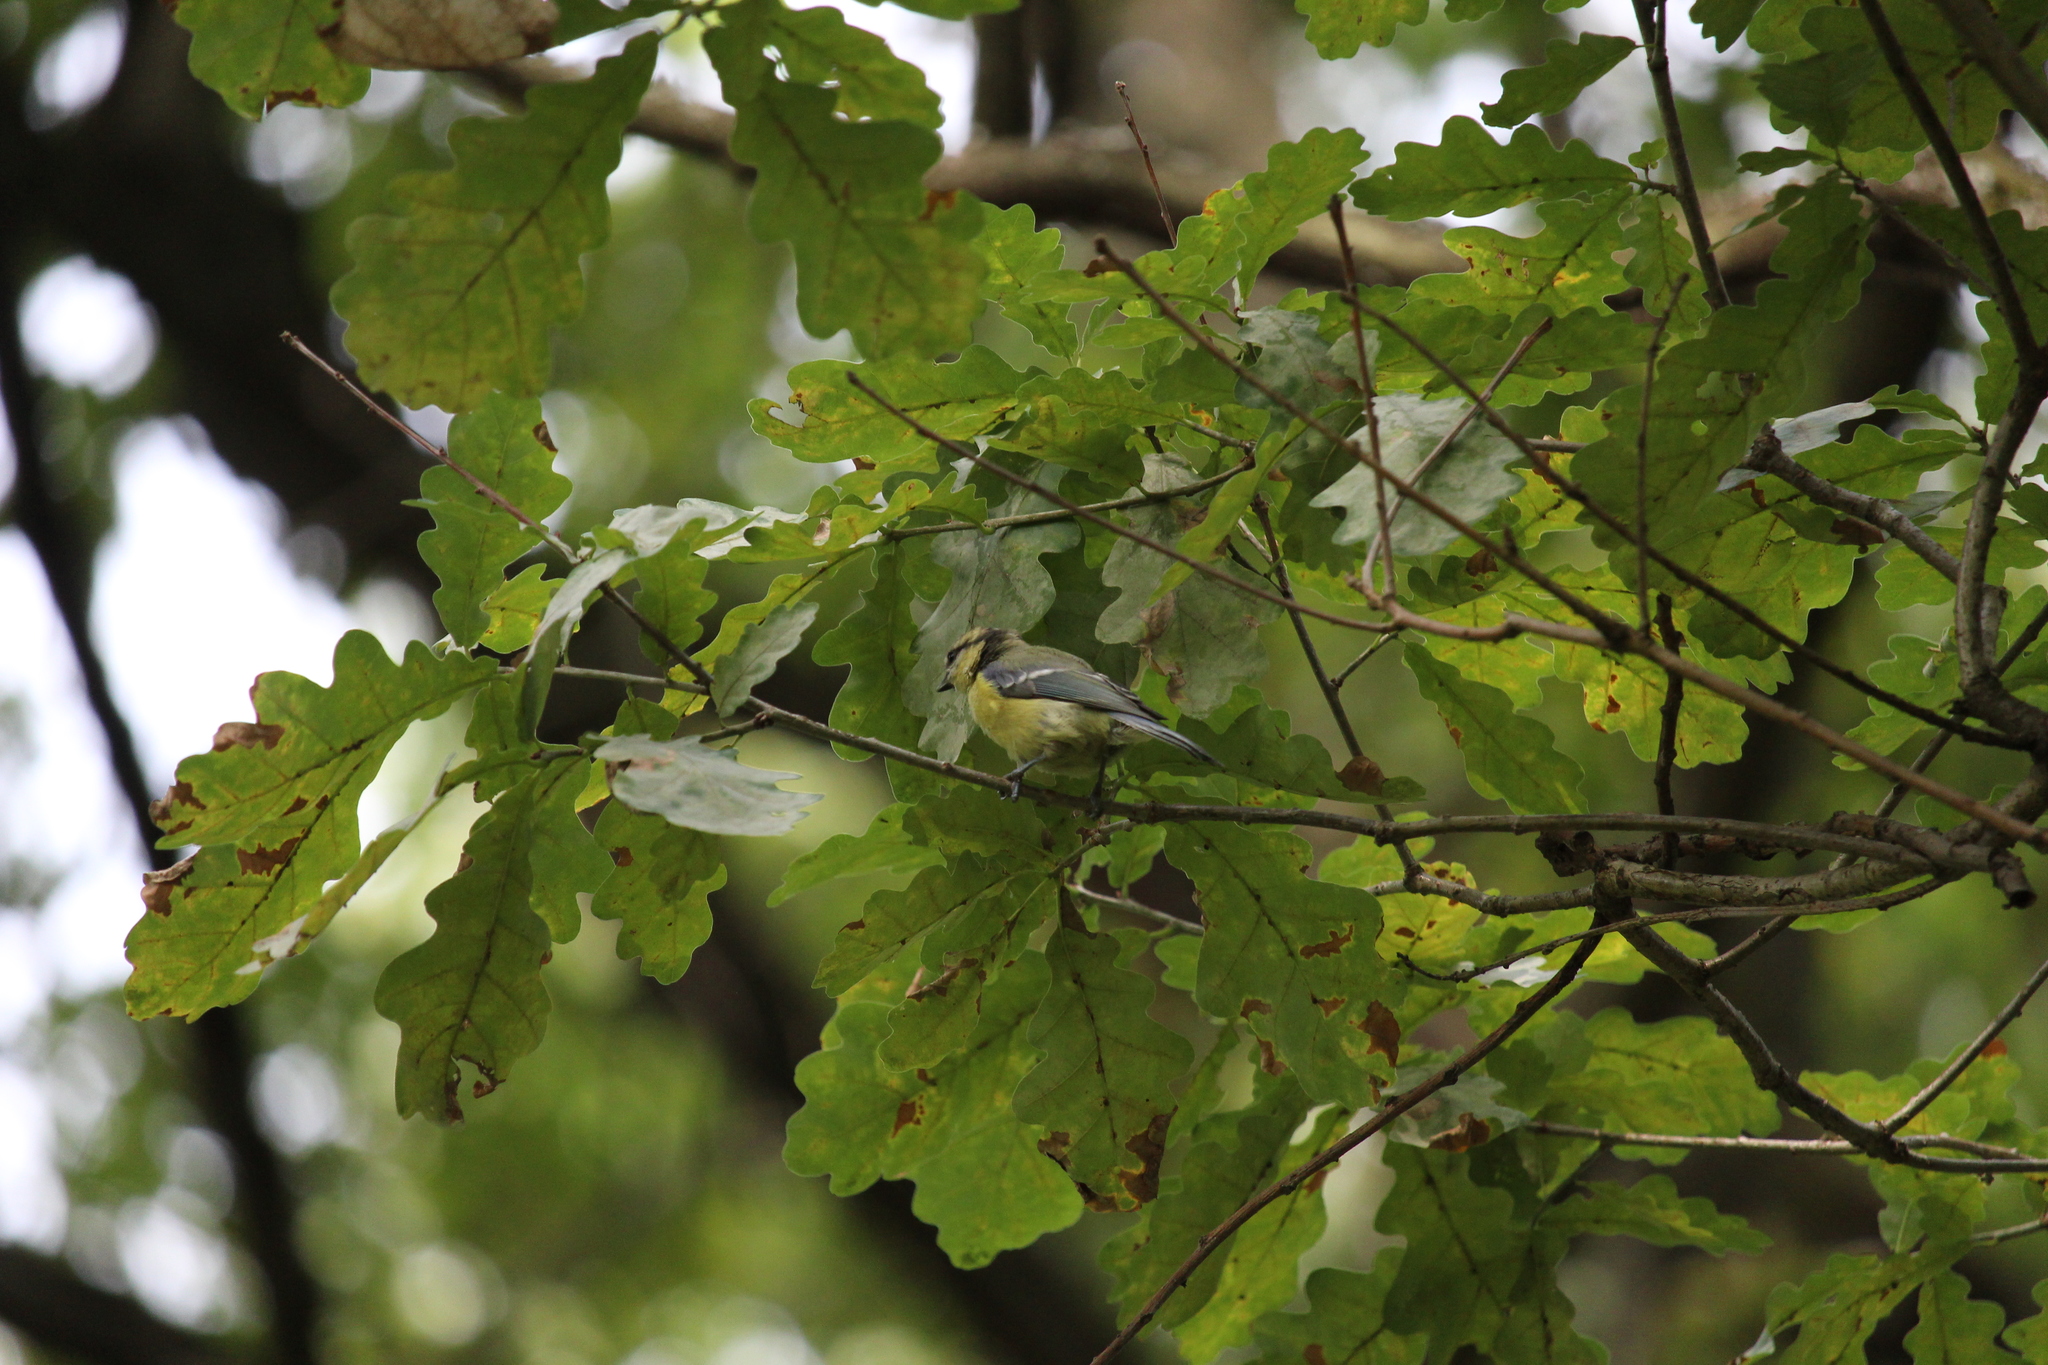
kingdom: Animalia
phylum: Chordata
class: Aves
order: Passeriformes
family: Paridae
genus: Cyanistes
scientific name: Cyanistes caeruleus
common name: Eurasian blue tit
